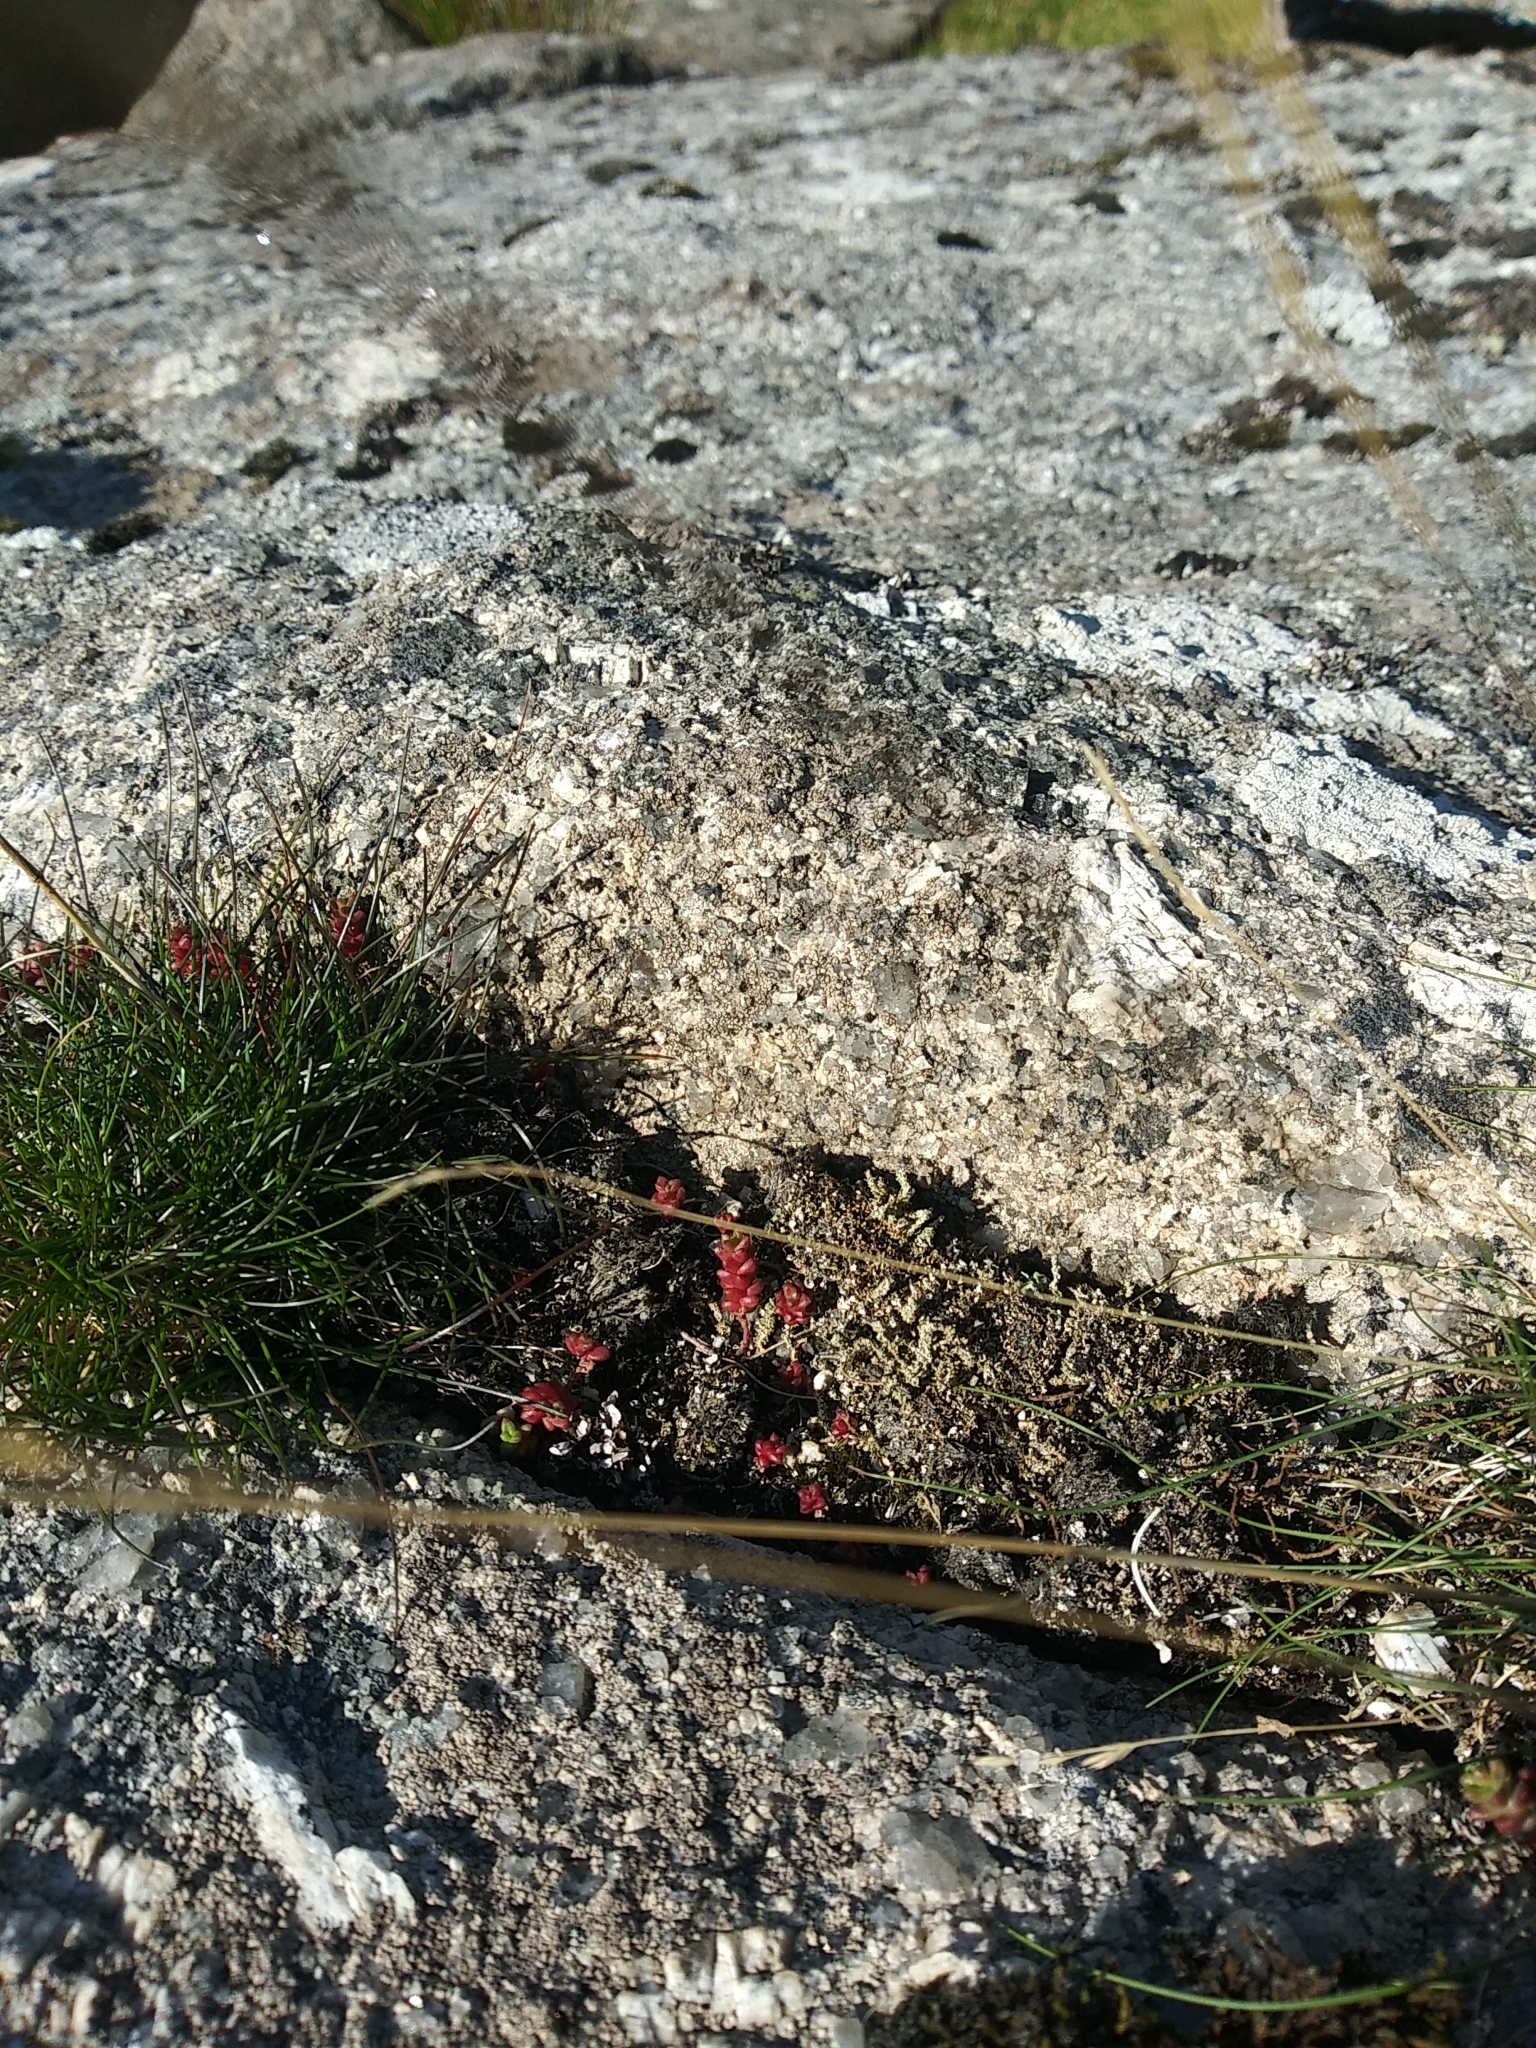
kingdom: Plantae
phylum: Tracheophyta
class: Magnoliopsida
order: Saxifragales
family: Crassulaceae
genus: Sedum
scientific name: Sedum anglicum
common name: English stonecrop
